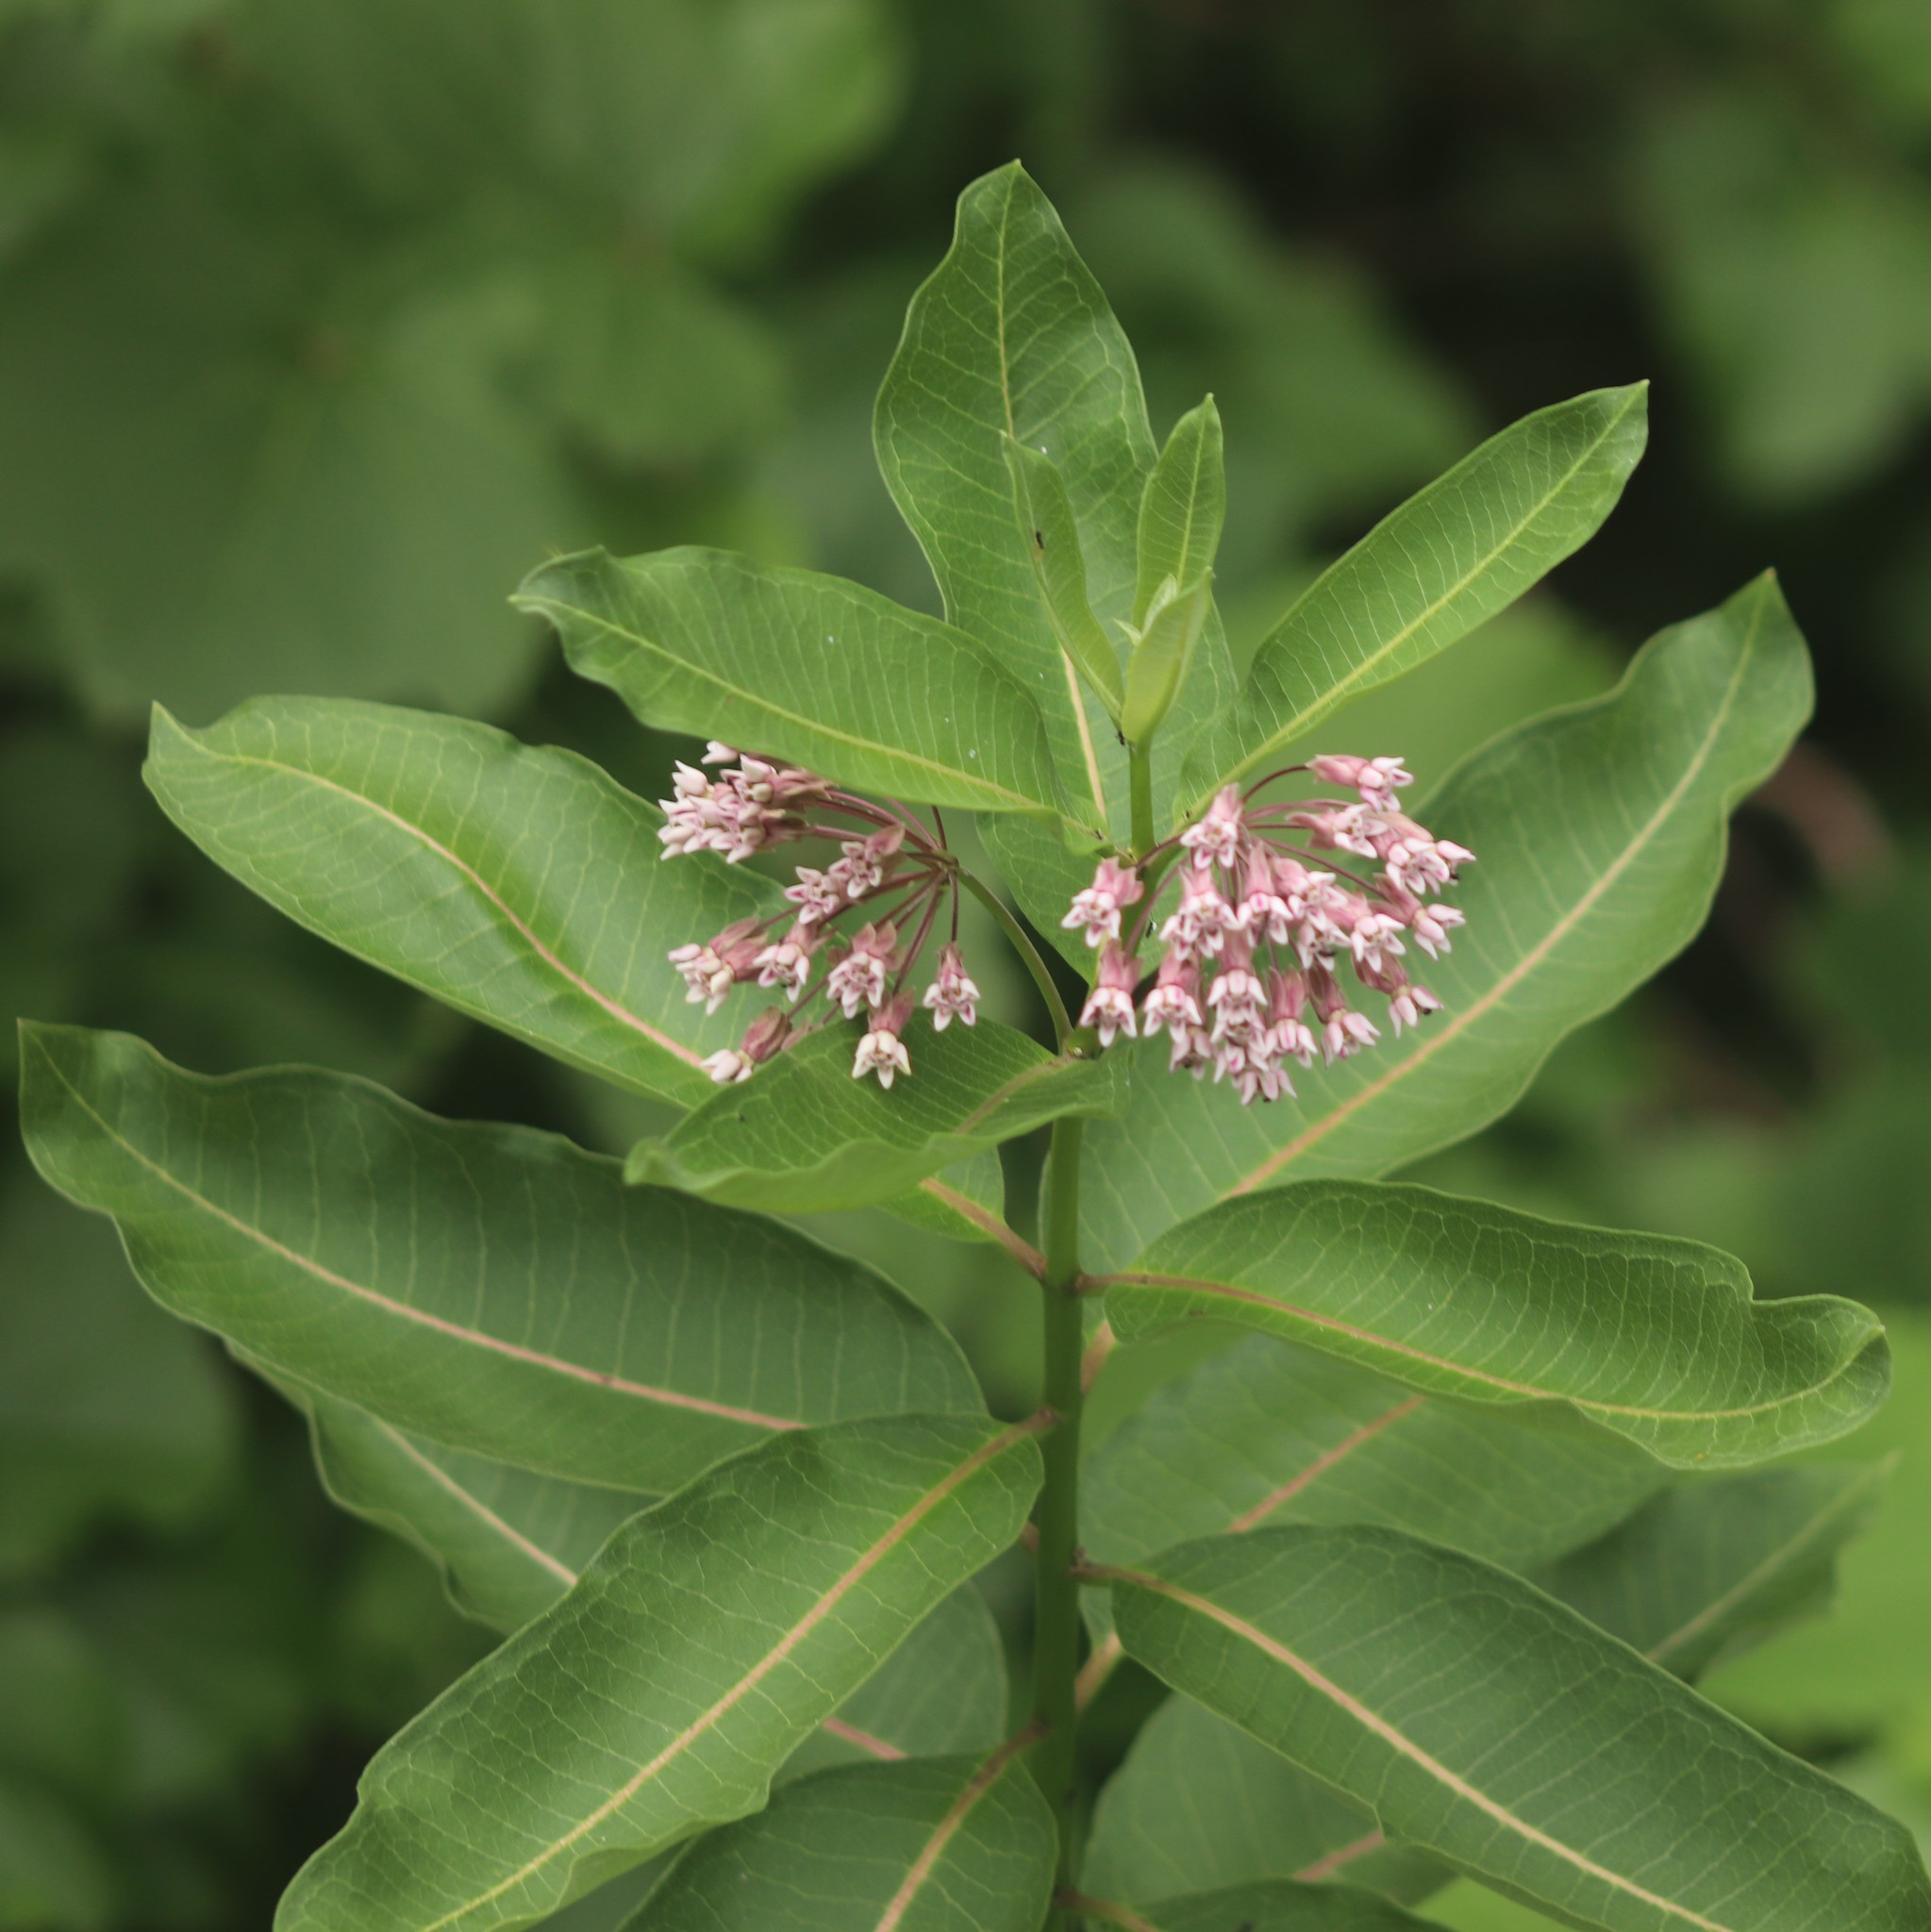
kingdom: Plantae
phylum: Tracheophyta
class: Magnoliopsida
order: Gentianales
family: Apocynaceae
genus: Asclepias
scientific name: Asclepias syriaca
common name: Common milkweed
